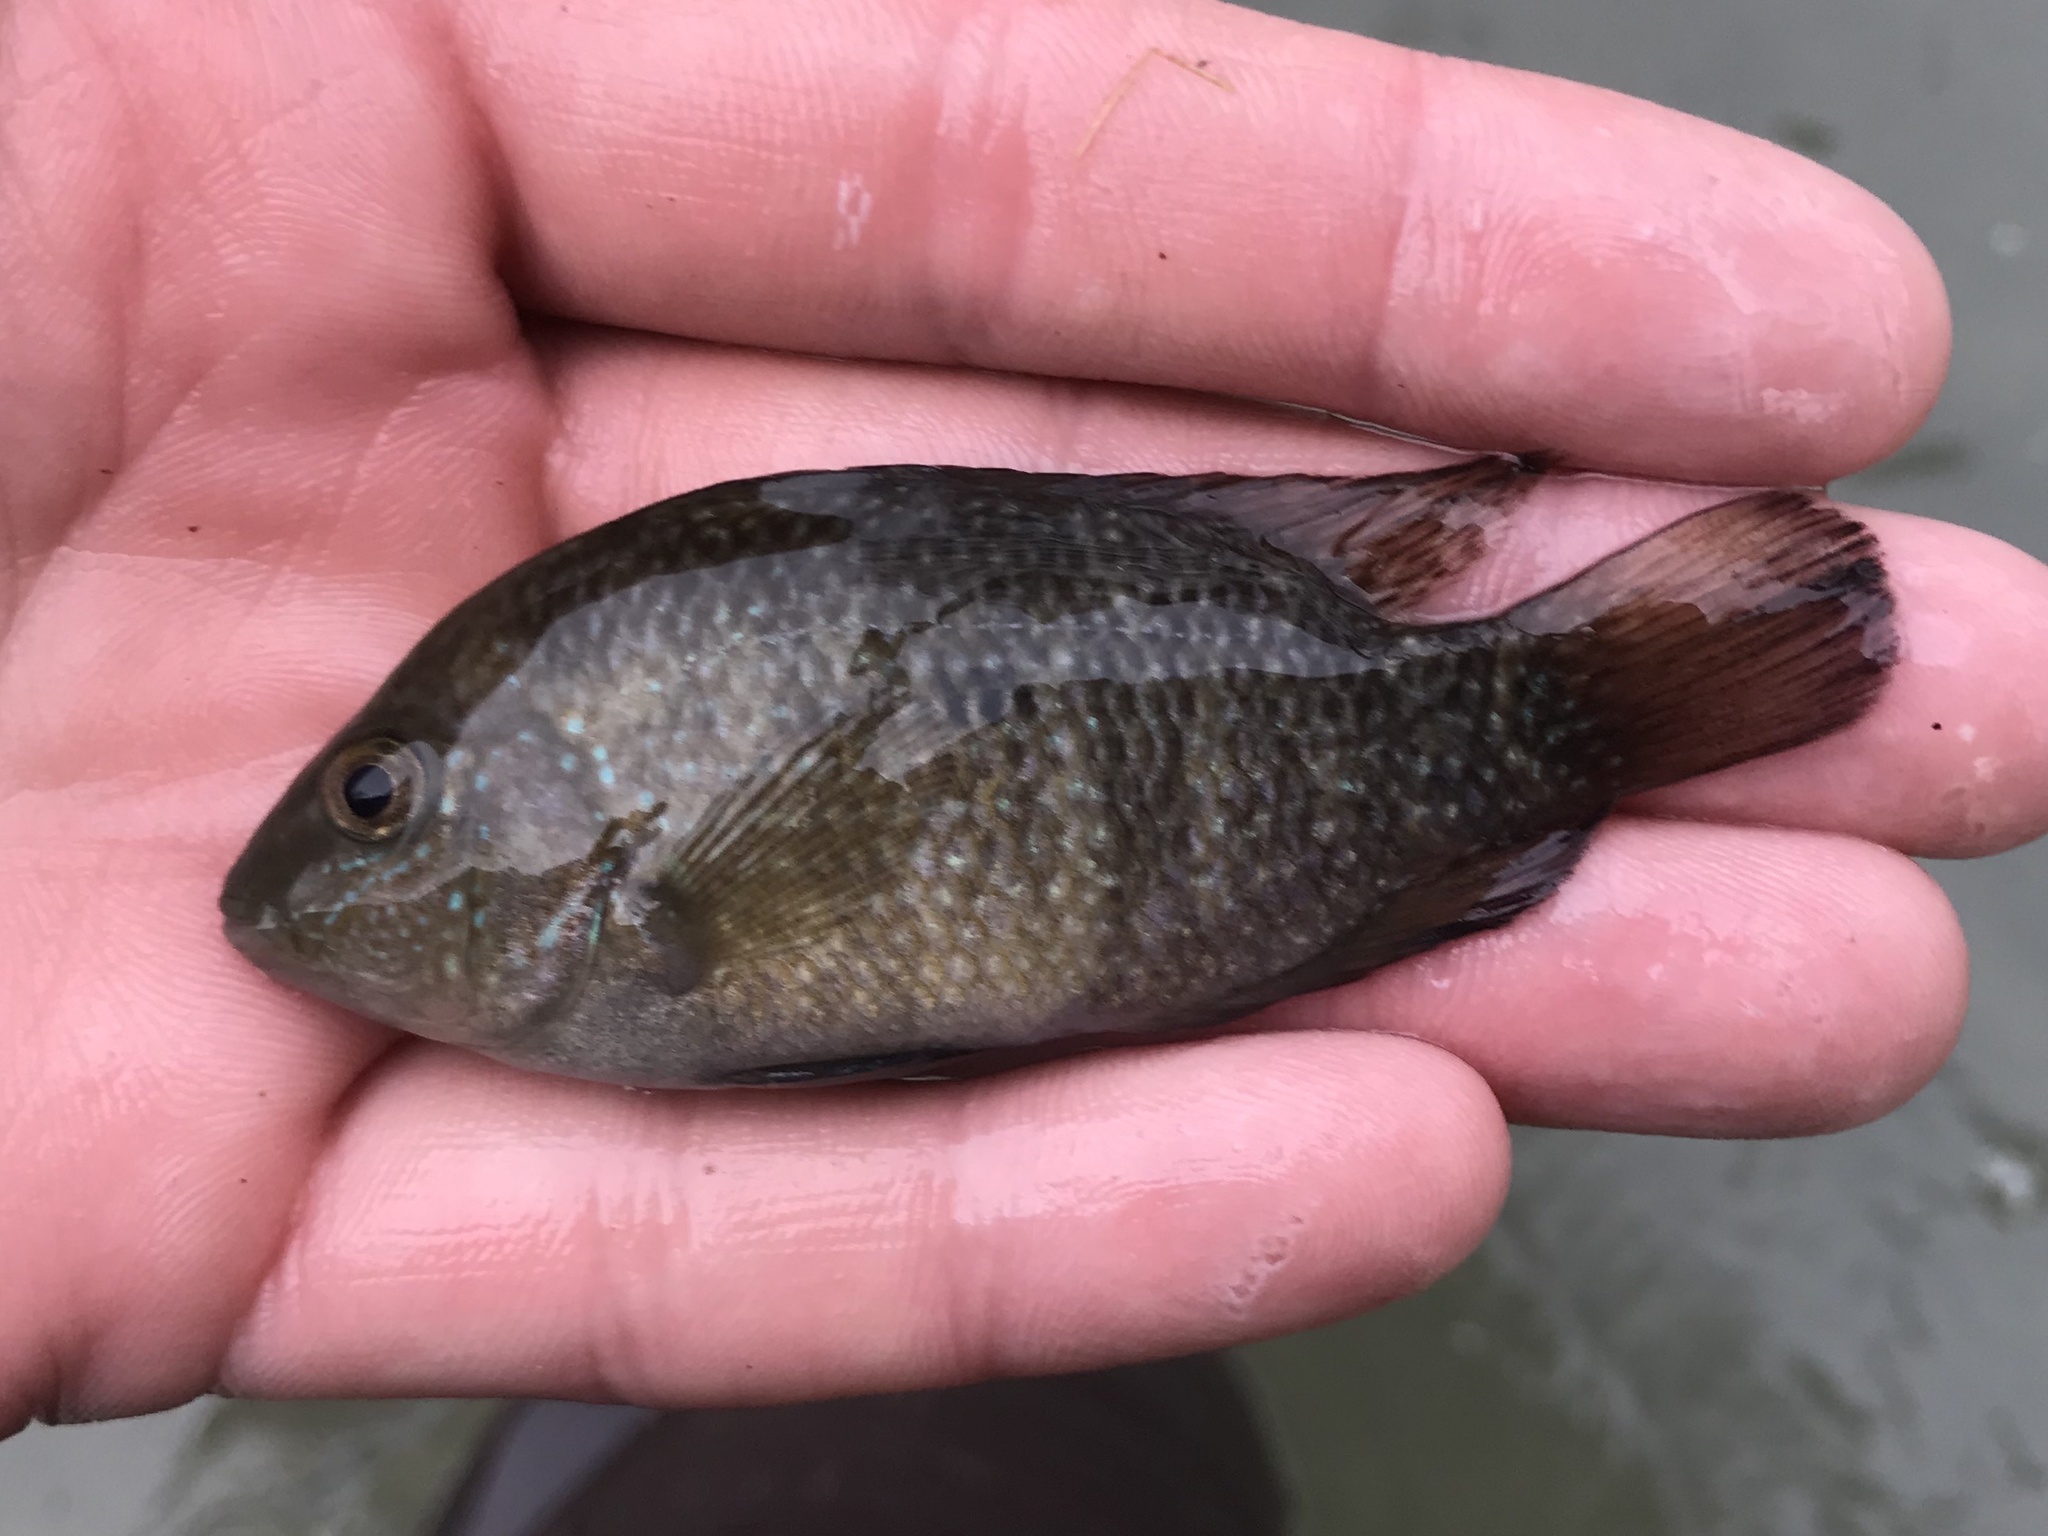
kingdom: Animalia
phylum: Chordata
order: Perciformes
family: Cichlidae
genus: Herichthys
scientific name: Herichthys cyanoguttatus
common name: Rio grande cichlid
